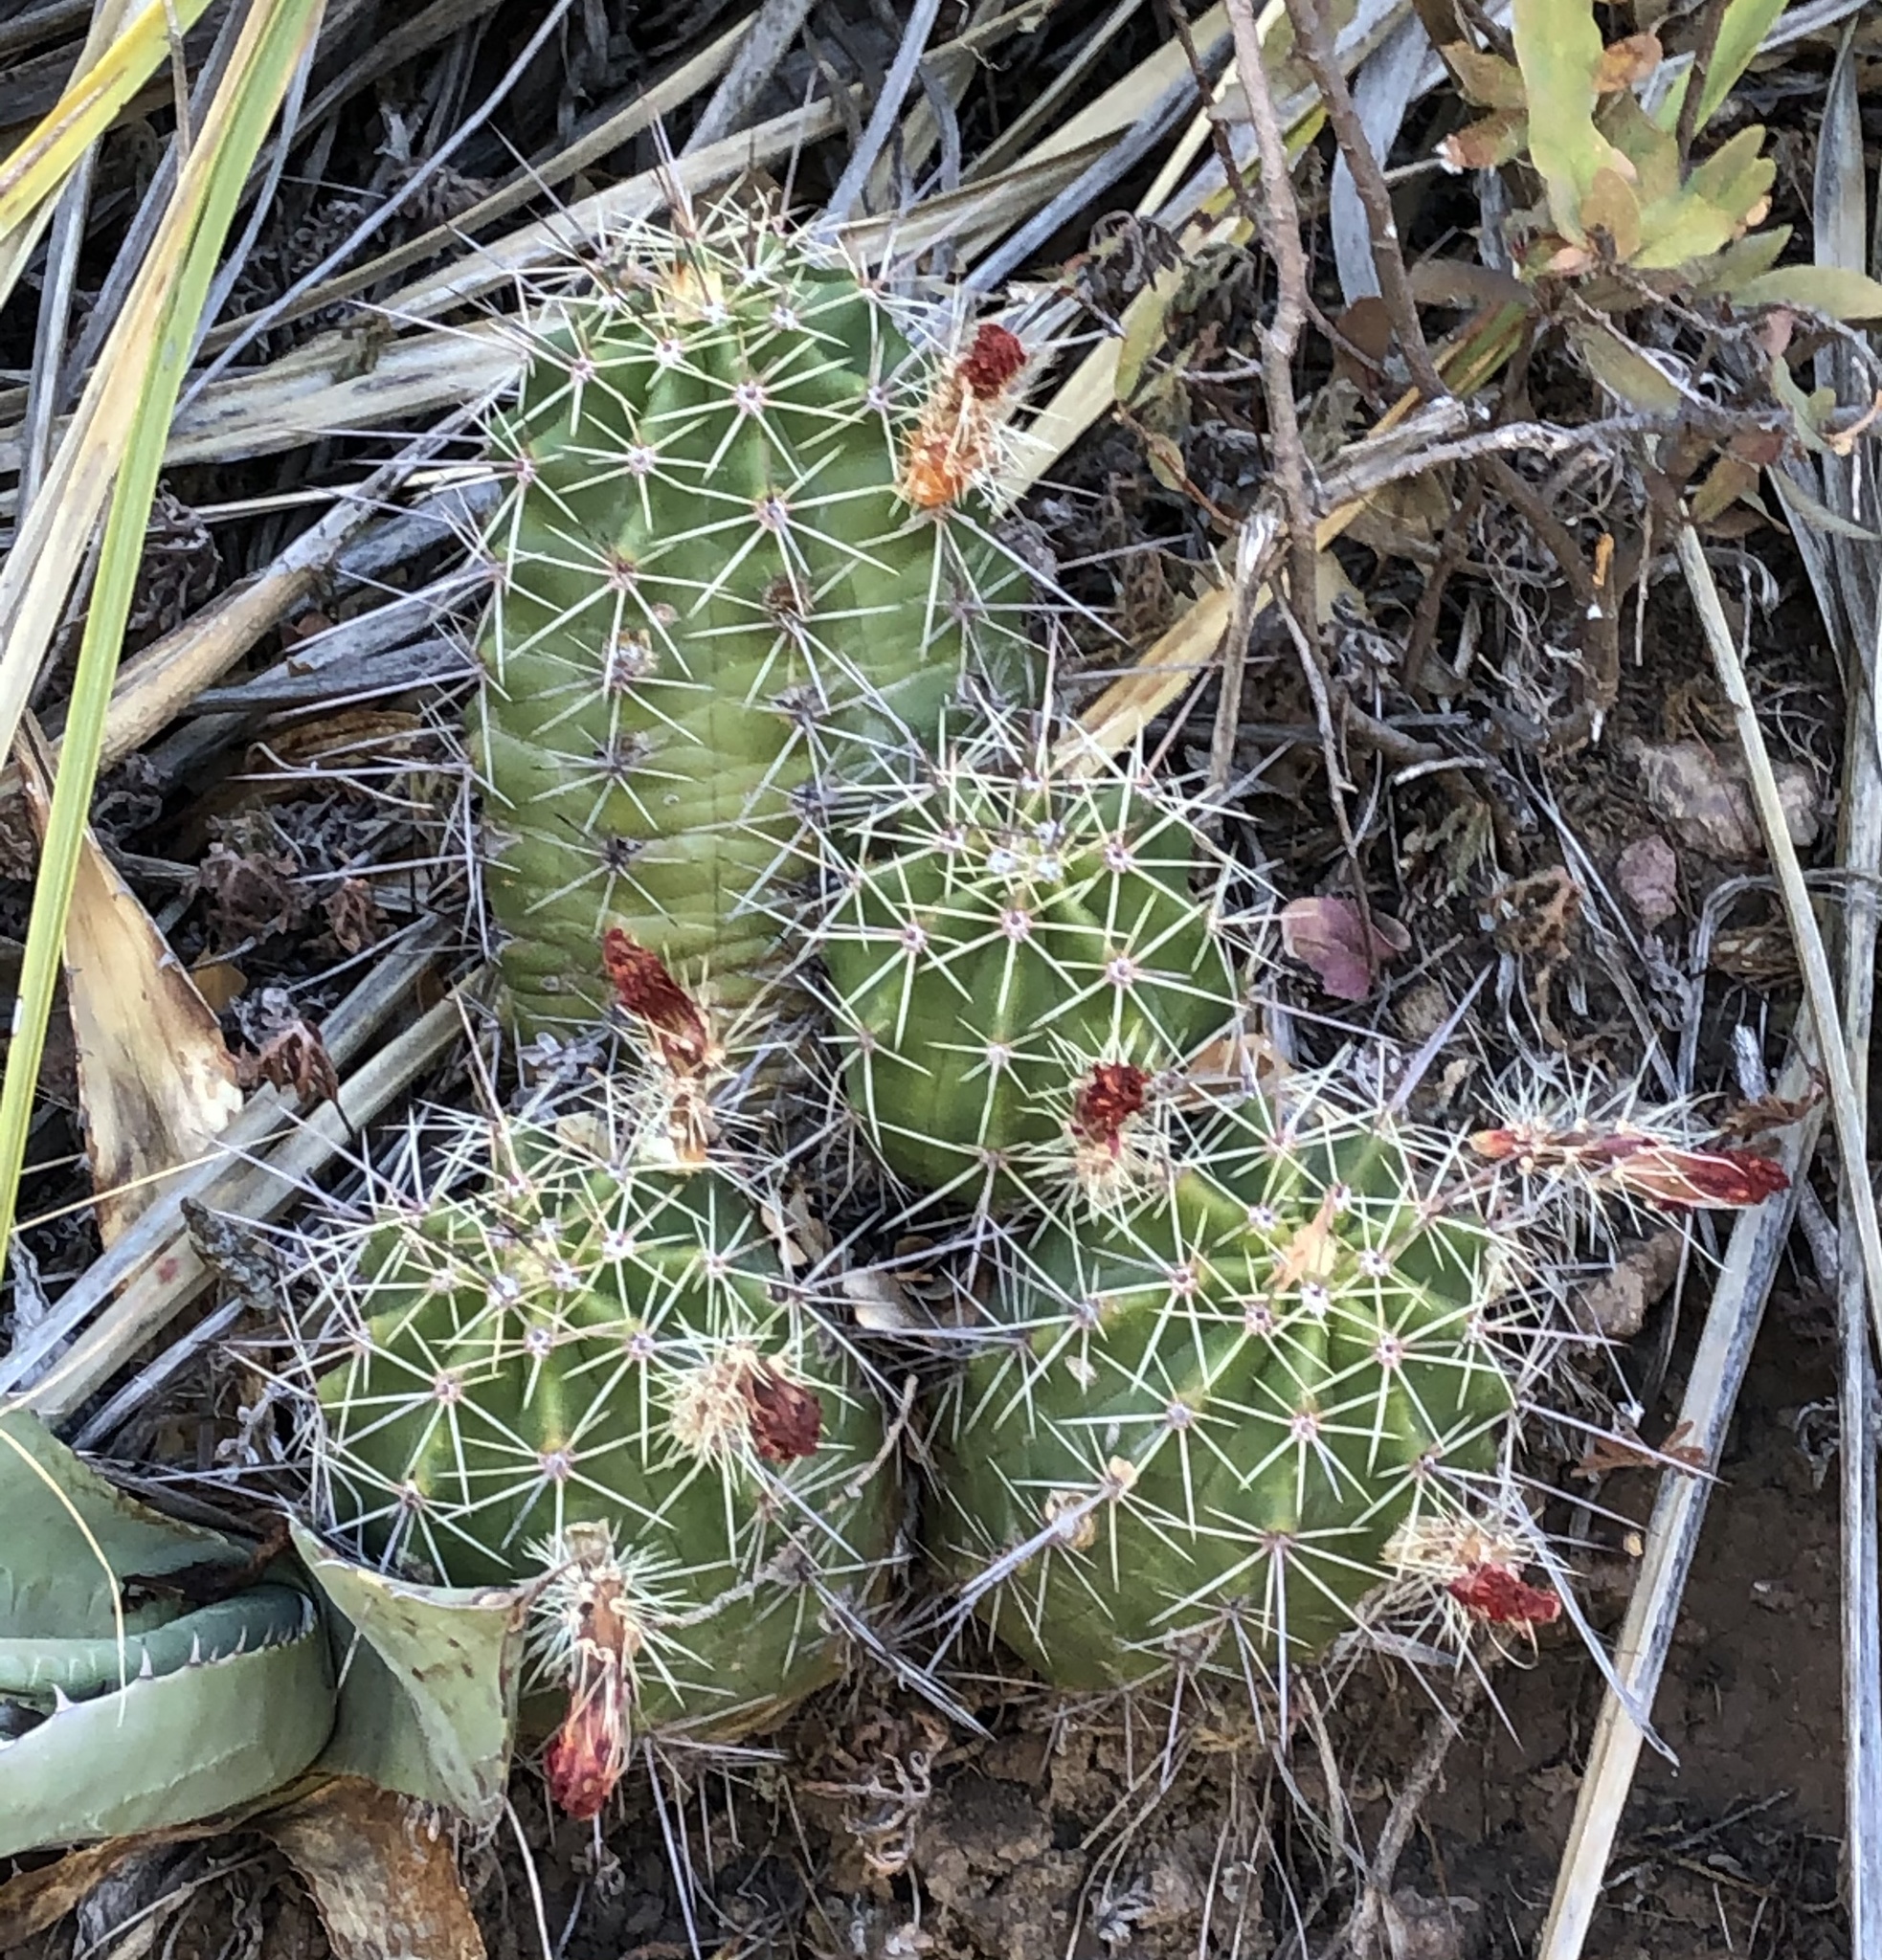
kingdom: Plantae
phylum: Tracheophyta
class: Magnoliopsida
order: Caryophyllales
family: Cactaceae
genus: Echinocereus
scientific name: Echinocereus coccineus
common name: Scarlet hedgehog cactus
